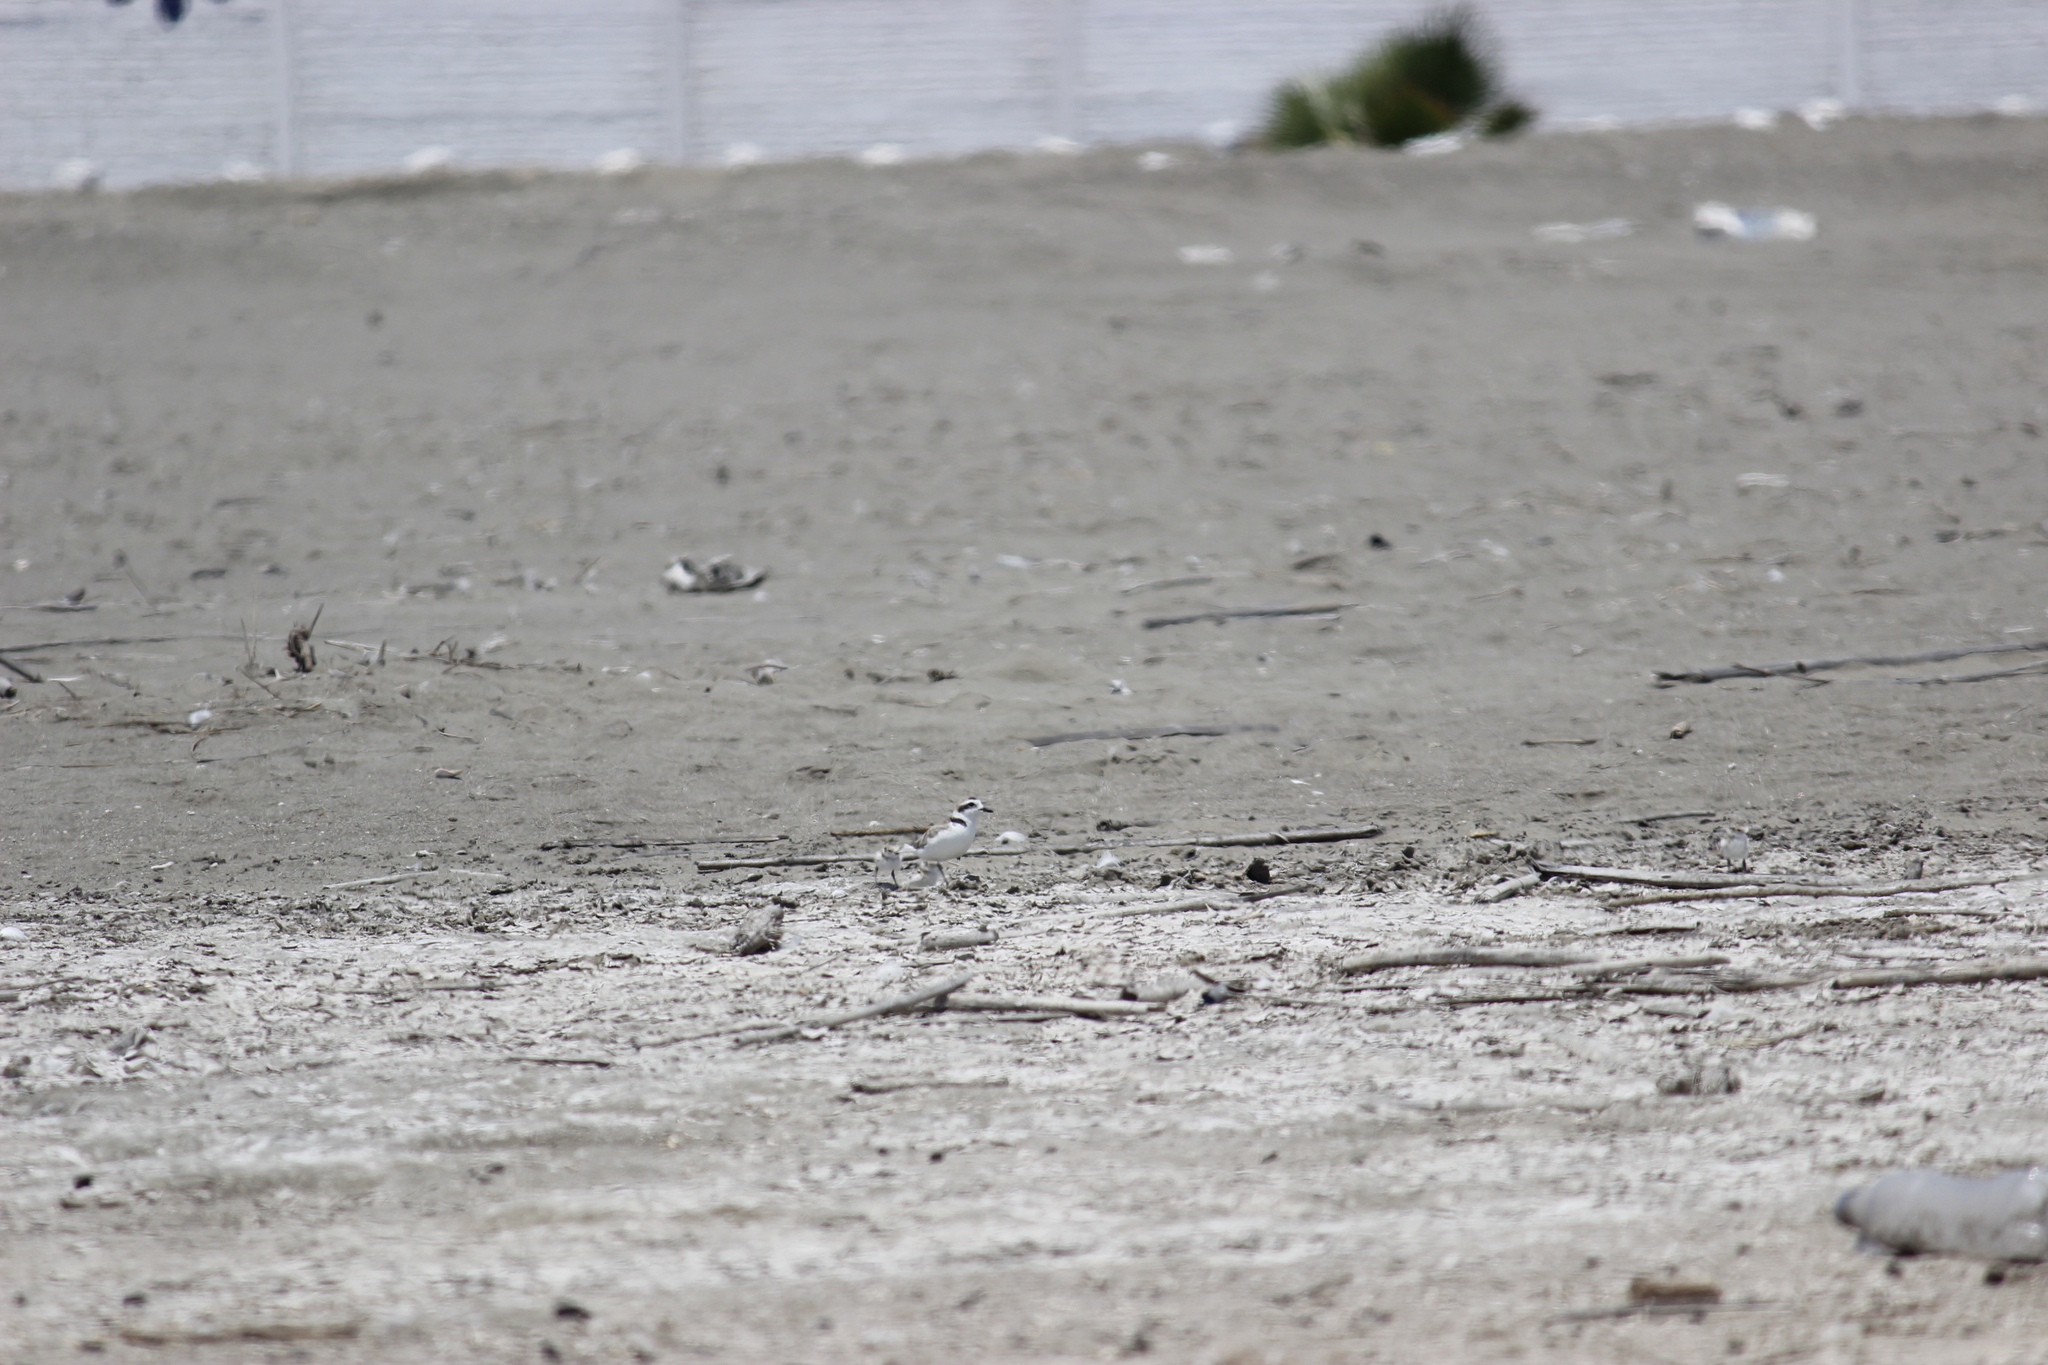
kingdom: Animalia
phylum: Chordata
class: Aves
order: Charadriiformes
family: Charadriidae
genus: Anarhynchus
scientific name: Anarhynchus
